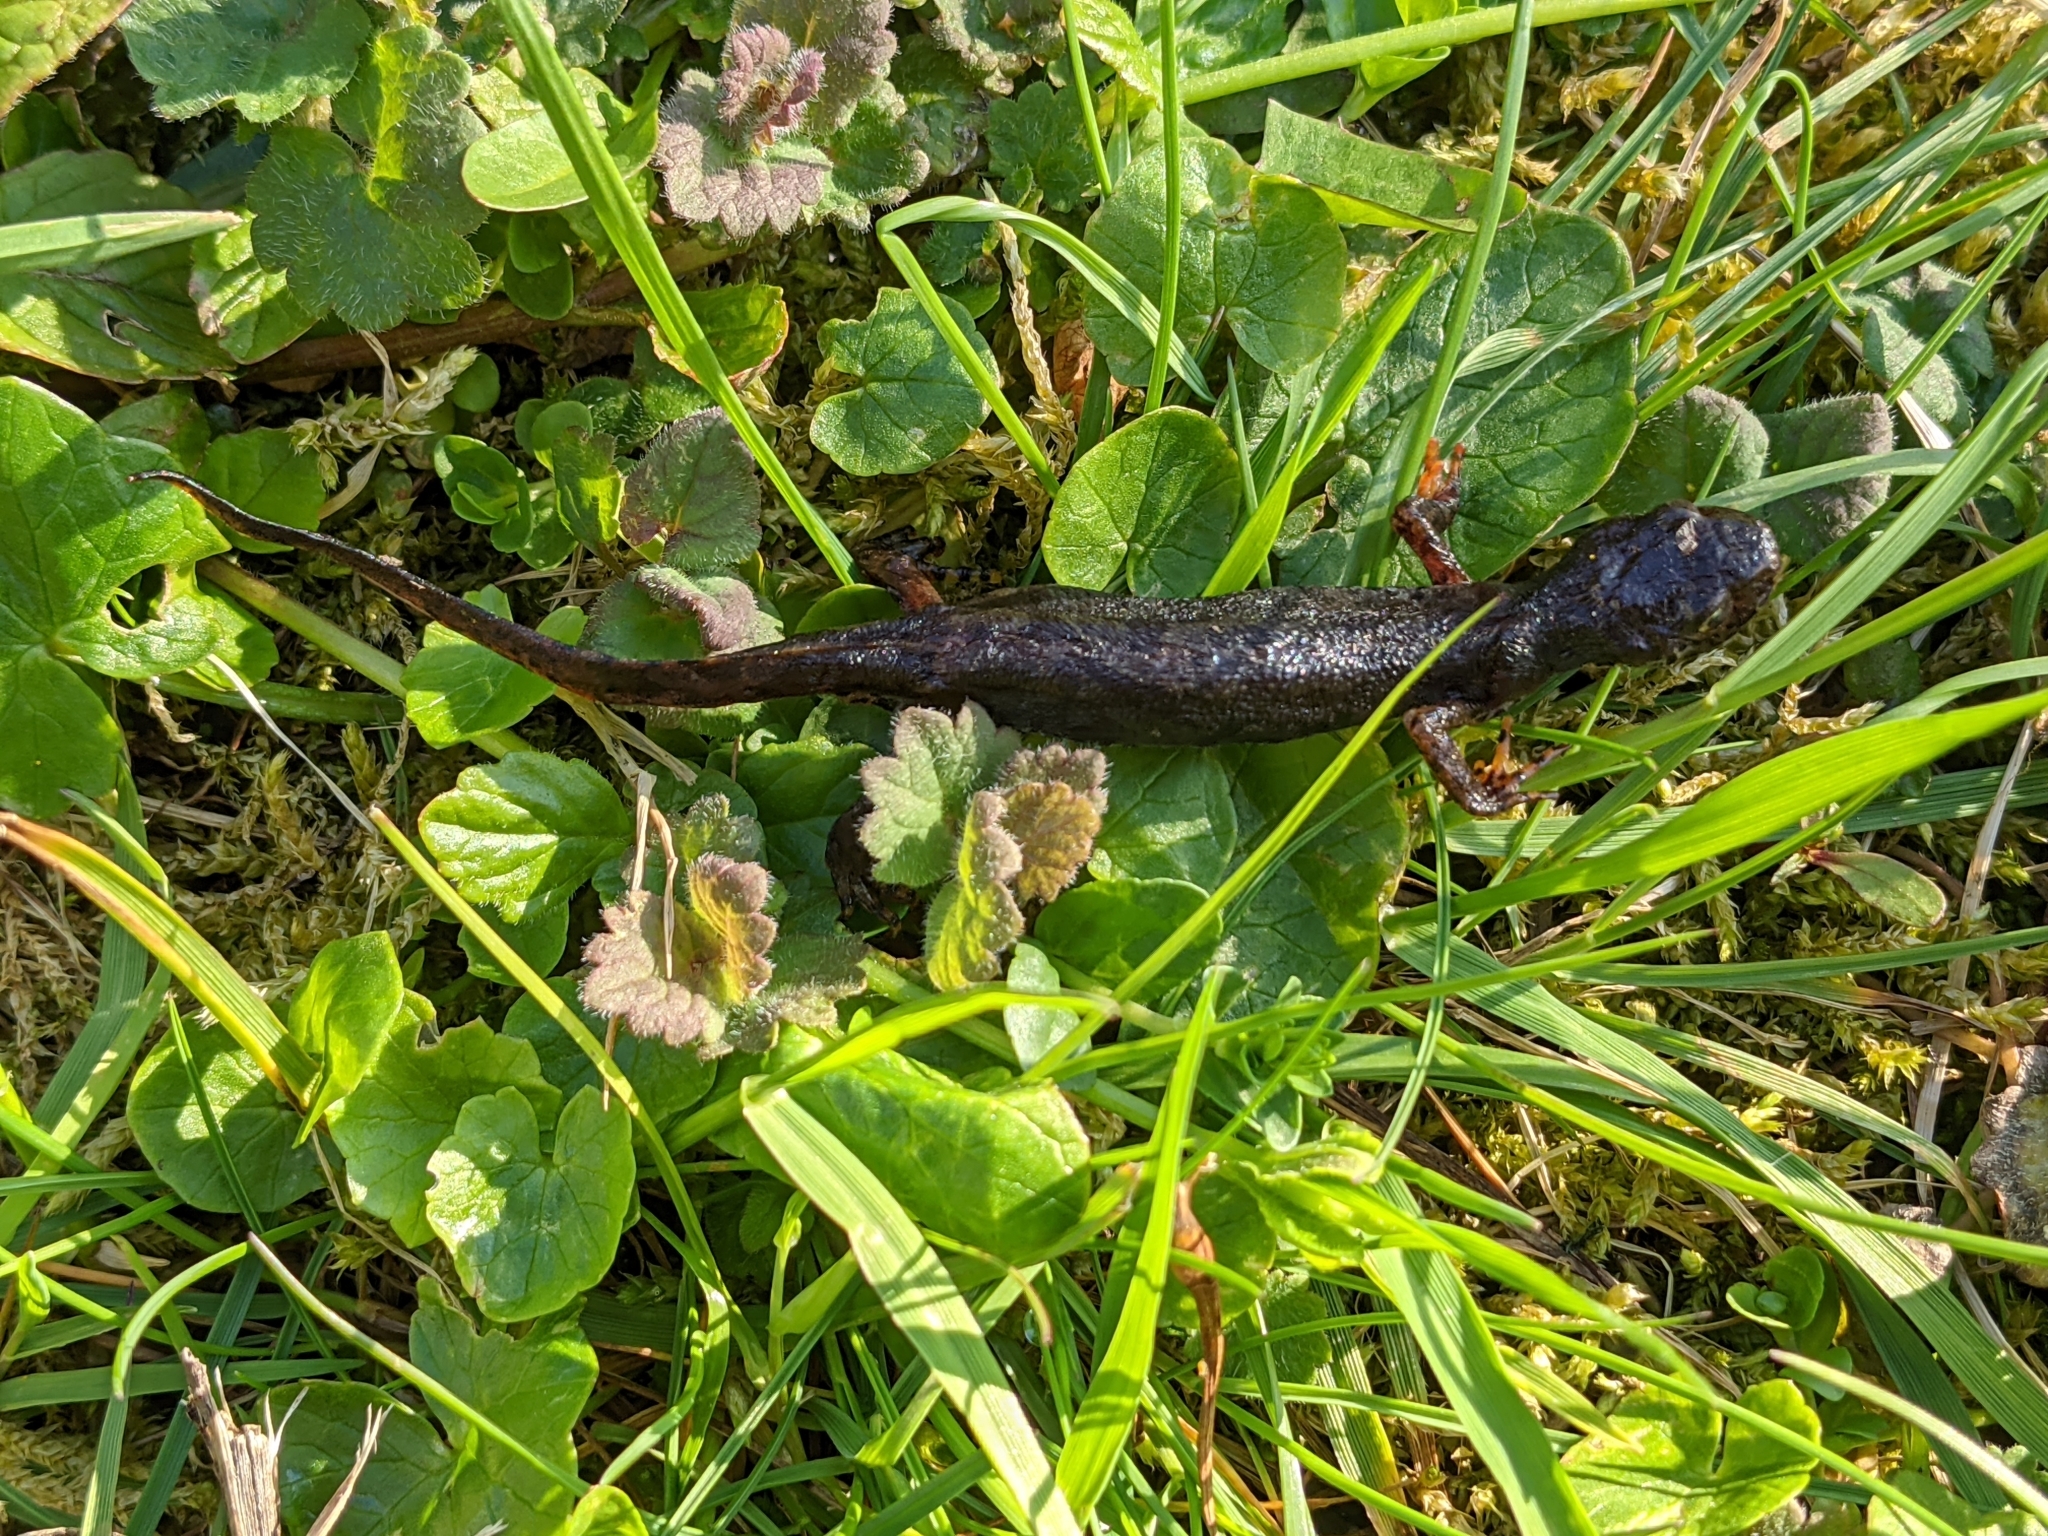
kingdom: Animalia
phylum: Chordata
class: Amphibia
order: Caudata
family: Salamandridae
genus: Ichthyosaura
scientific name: Ichthyosaura alpestris
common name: Alpine newt
